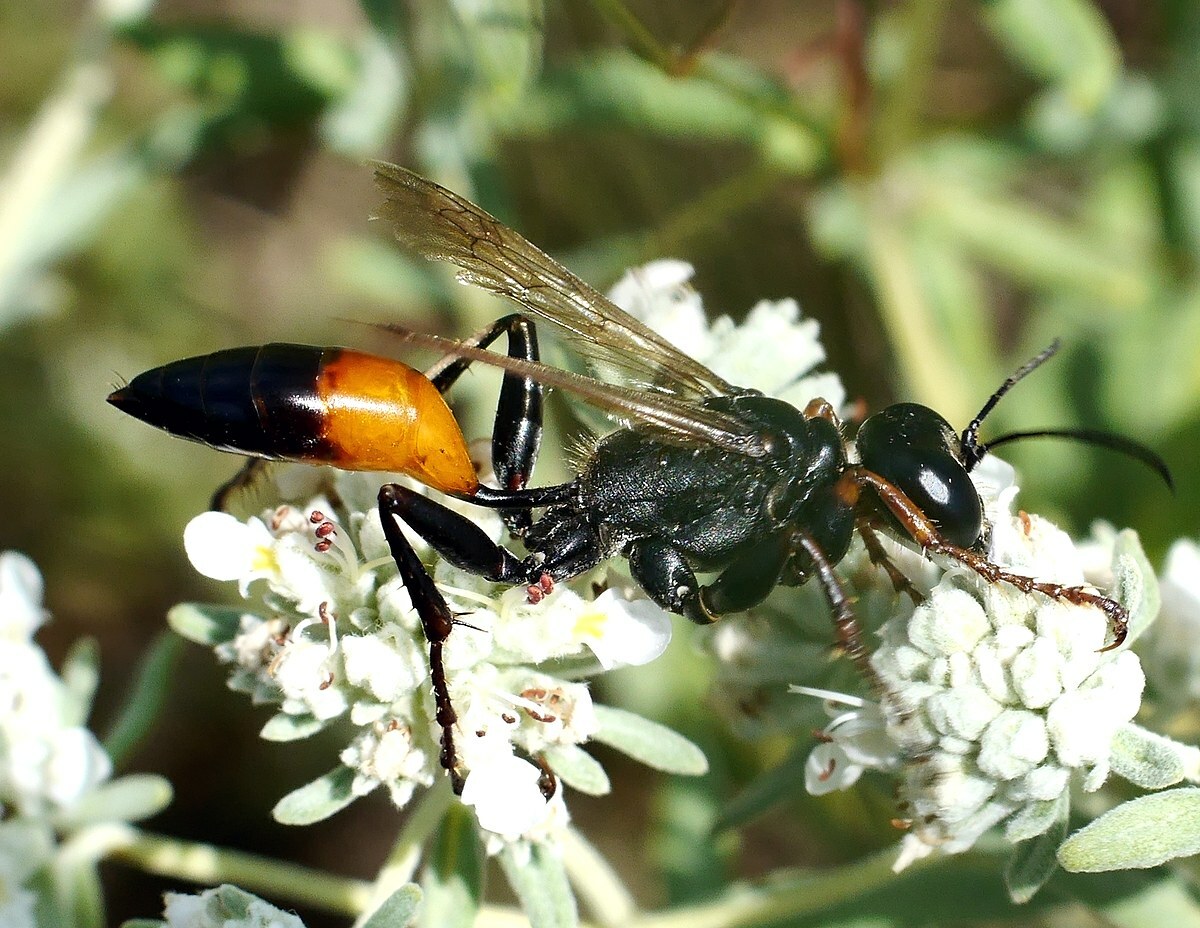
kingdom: Animalia
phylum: Arthropoda
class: Insecta
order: Hymenoptera
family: Sphecidae
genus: Palmodes
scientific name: Palmodes occitanicus
